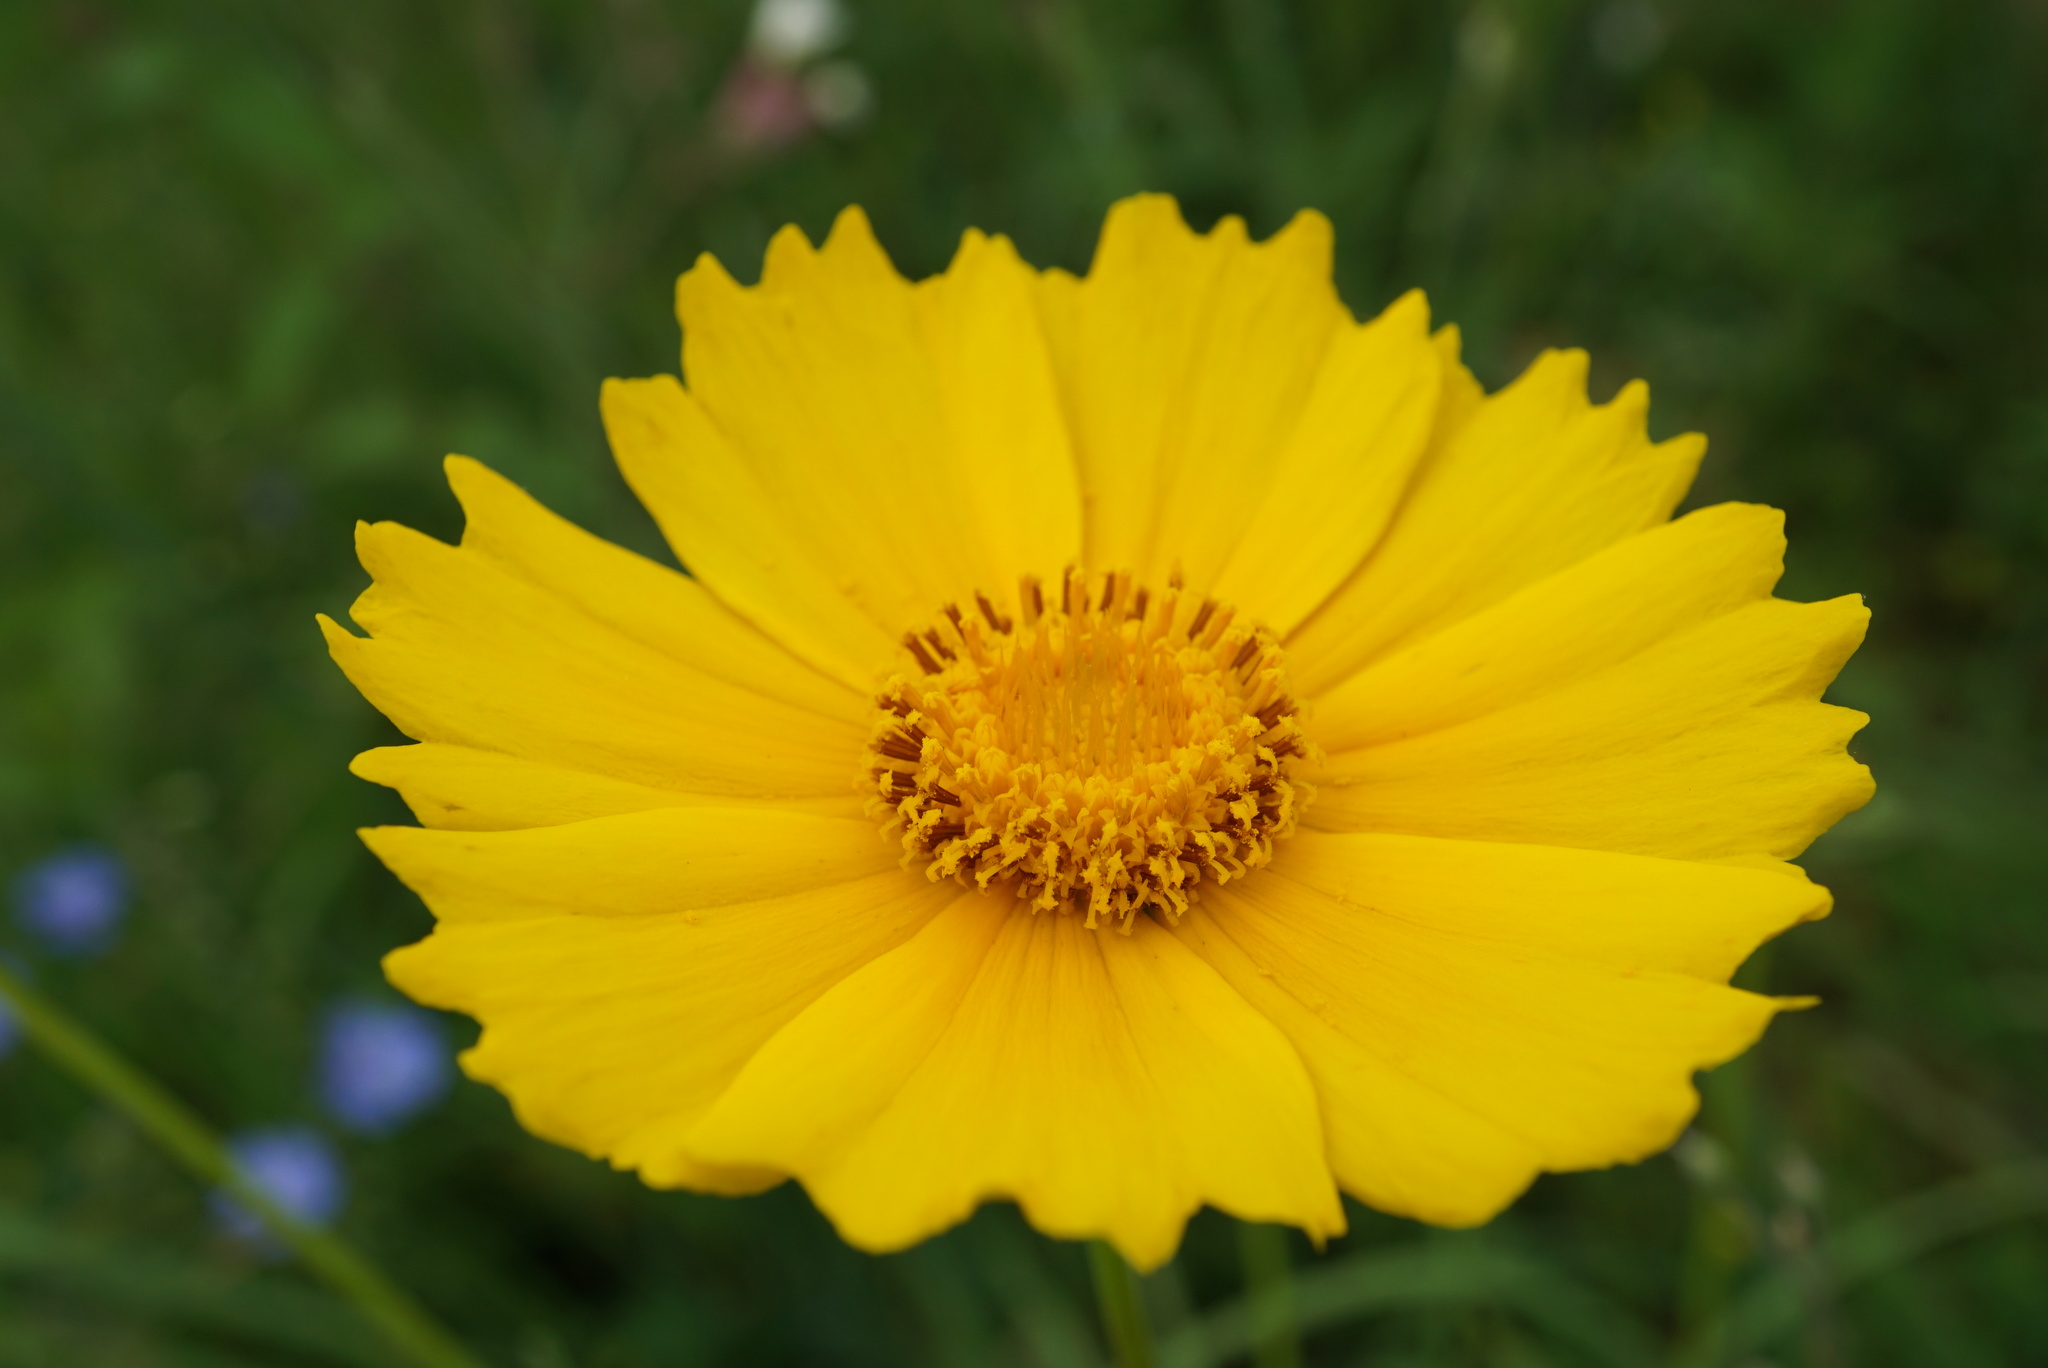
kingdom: Plantae
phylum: Tracheophyta
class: Magnoliopsida
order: Asterales
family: Asteraceae
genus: Coreopsis
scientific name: Coreopsis
